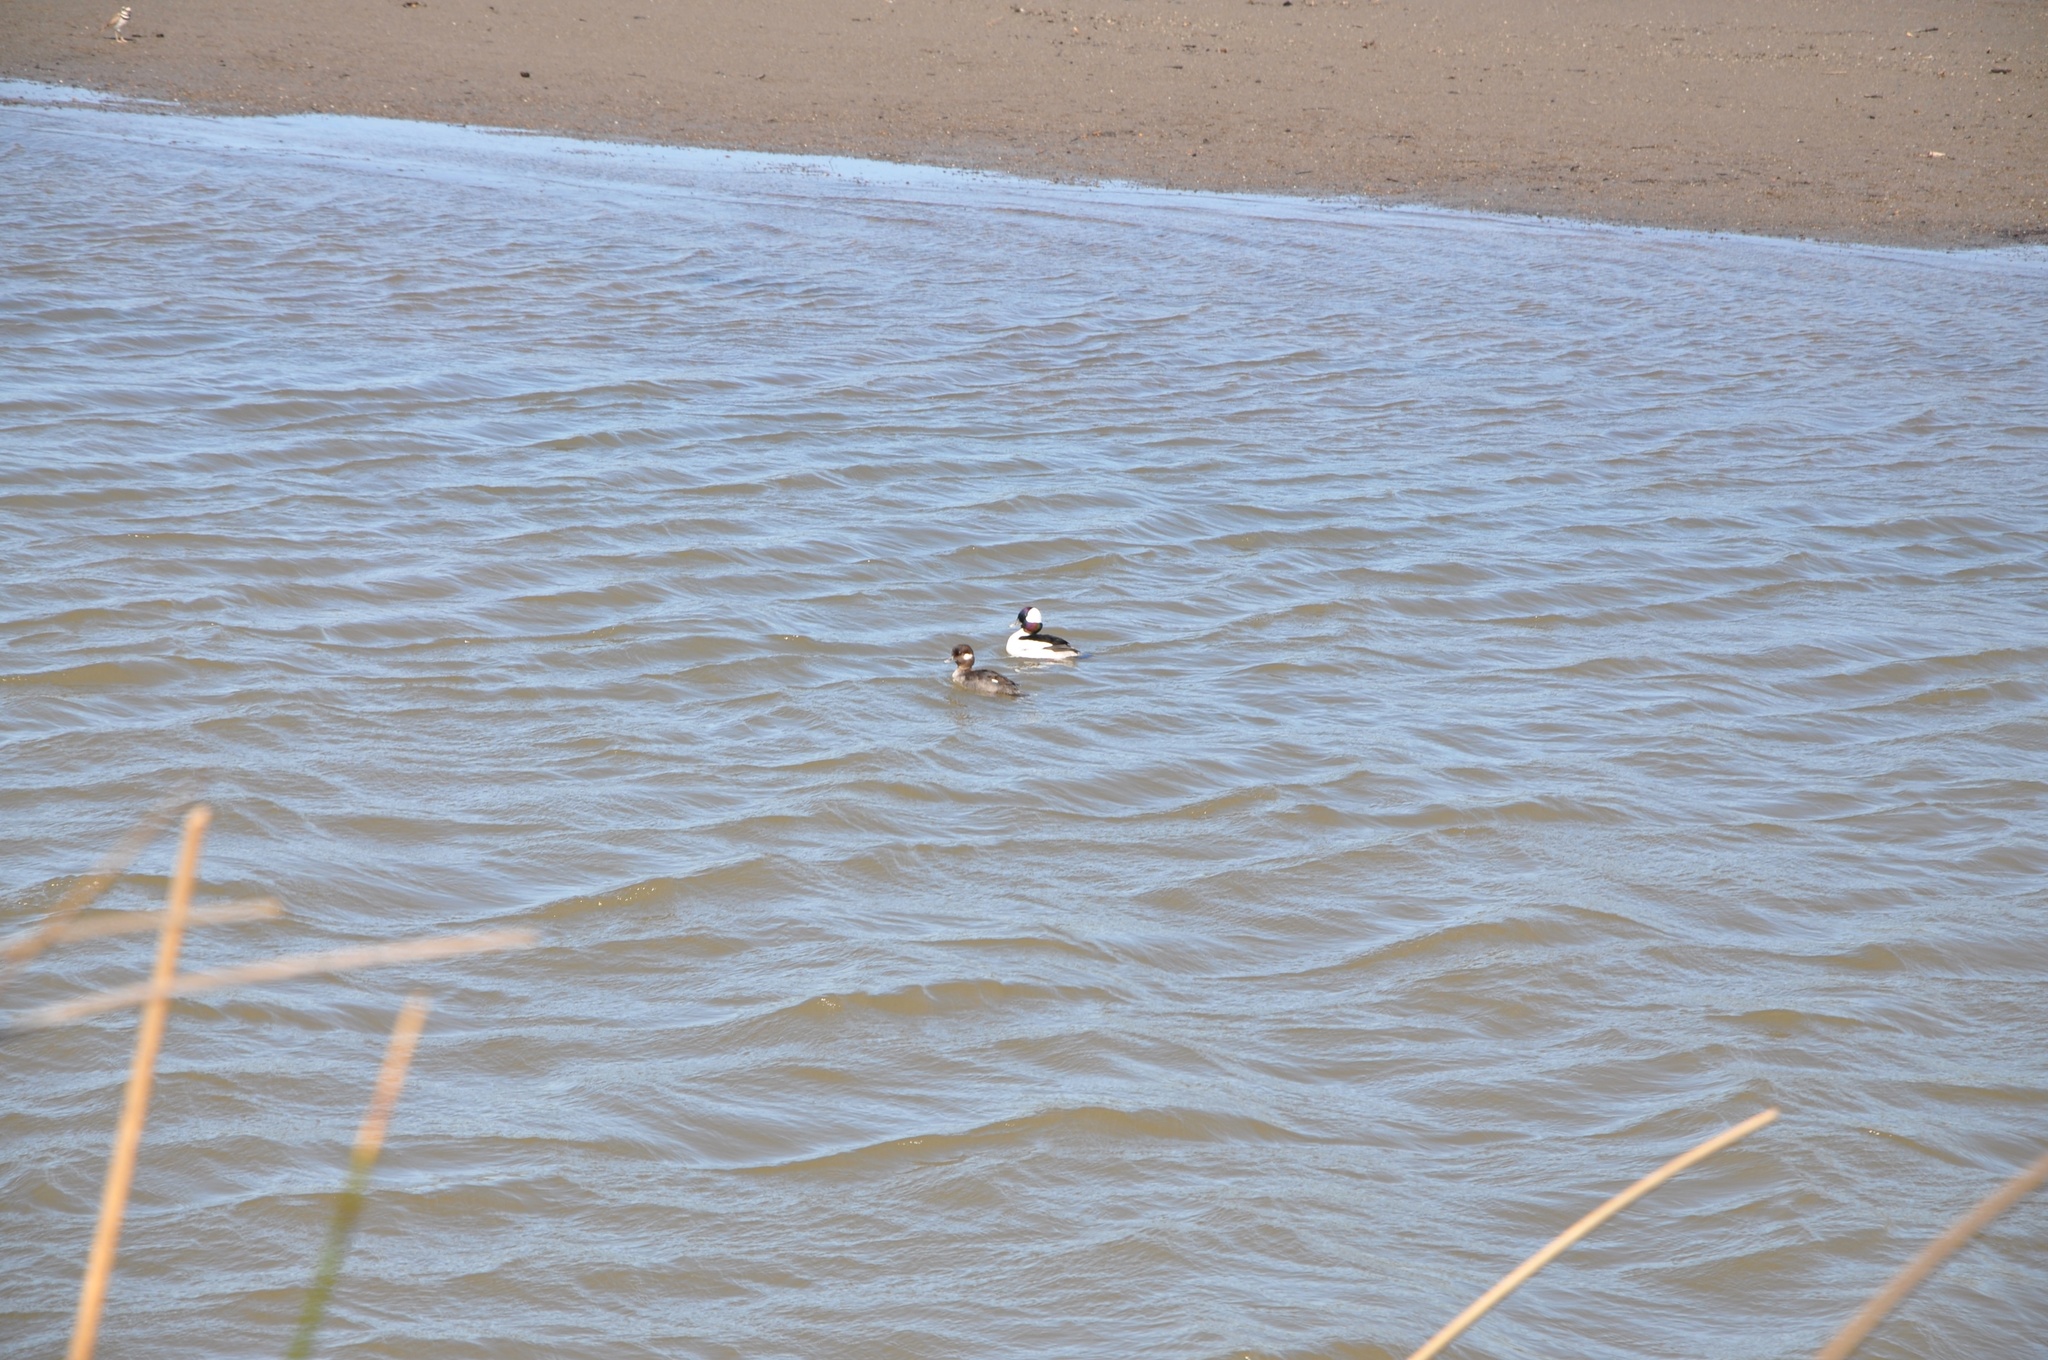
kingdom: Animalia
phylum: Chordata
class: Aves
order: Anseriformes
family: Anatidae
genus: Bucephala
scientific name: Bucephala albeola
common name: Bufflehead
